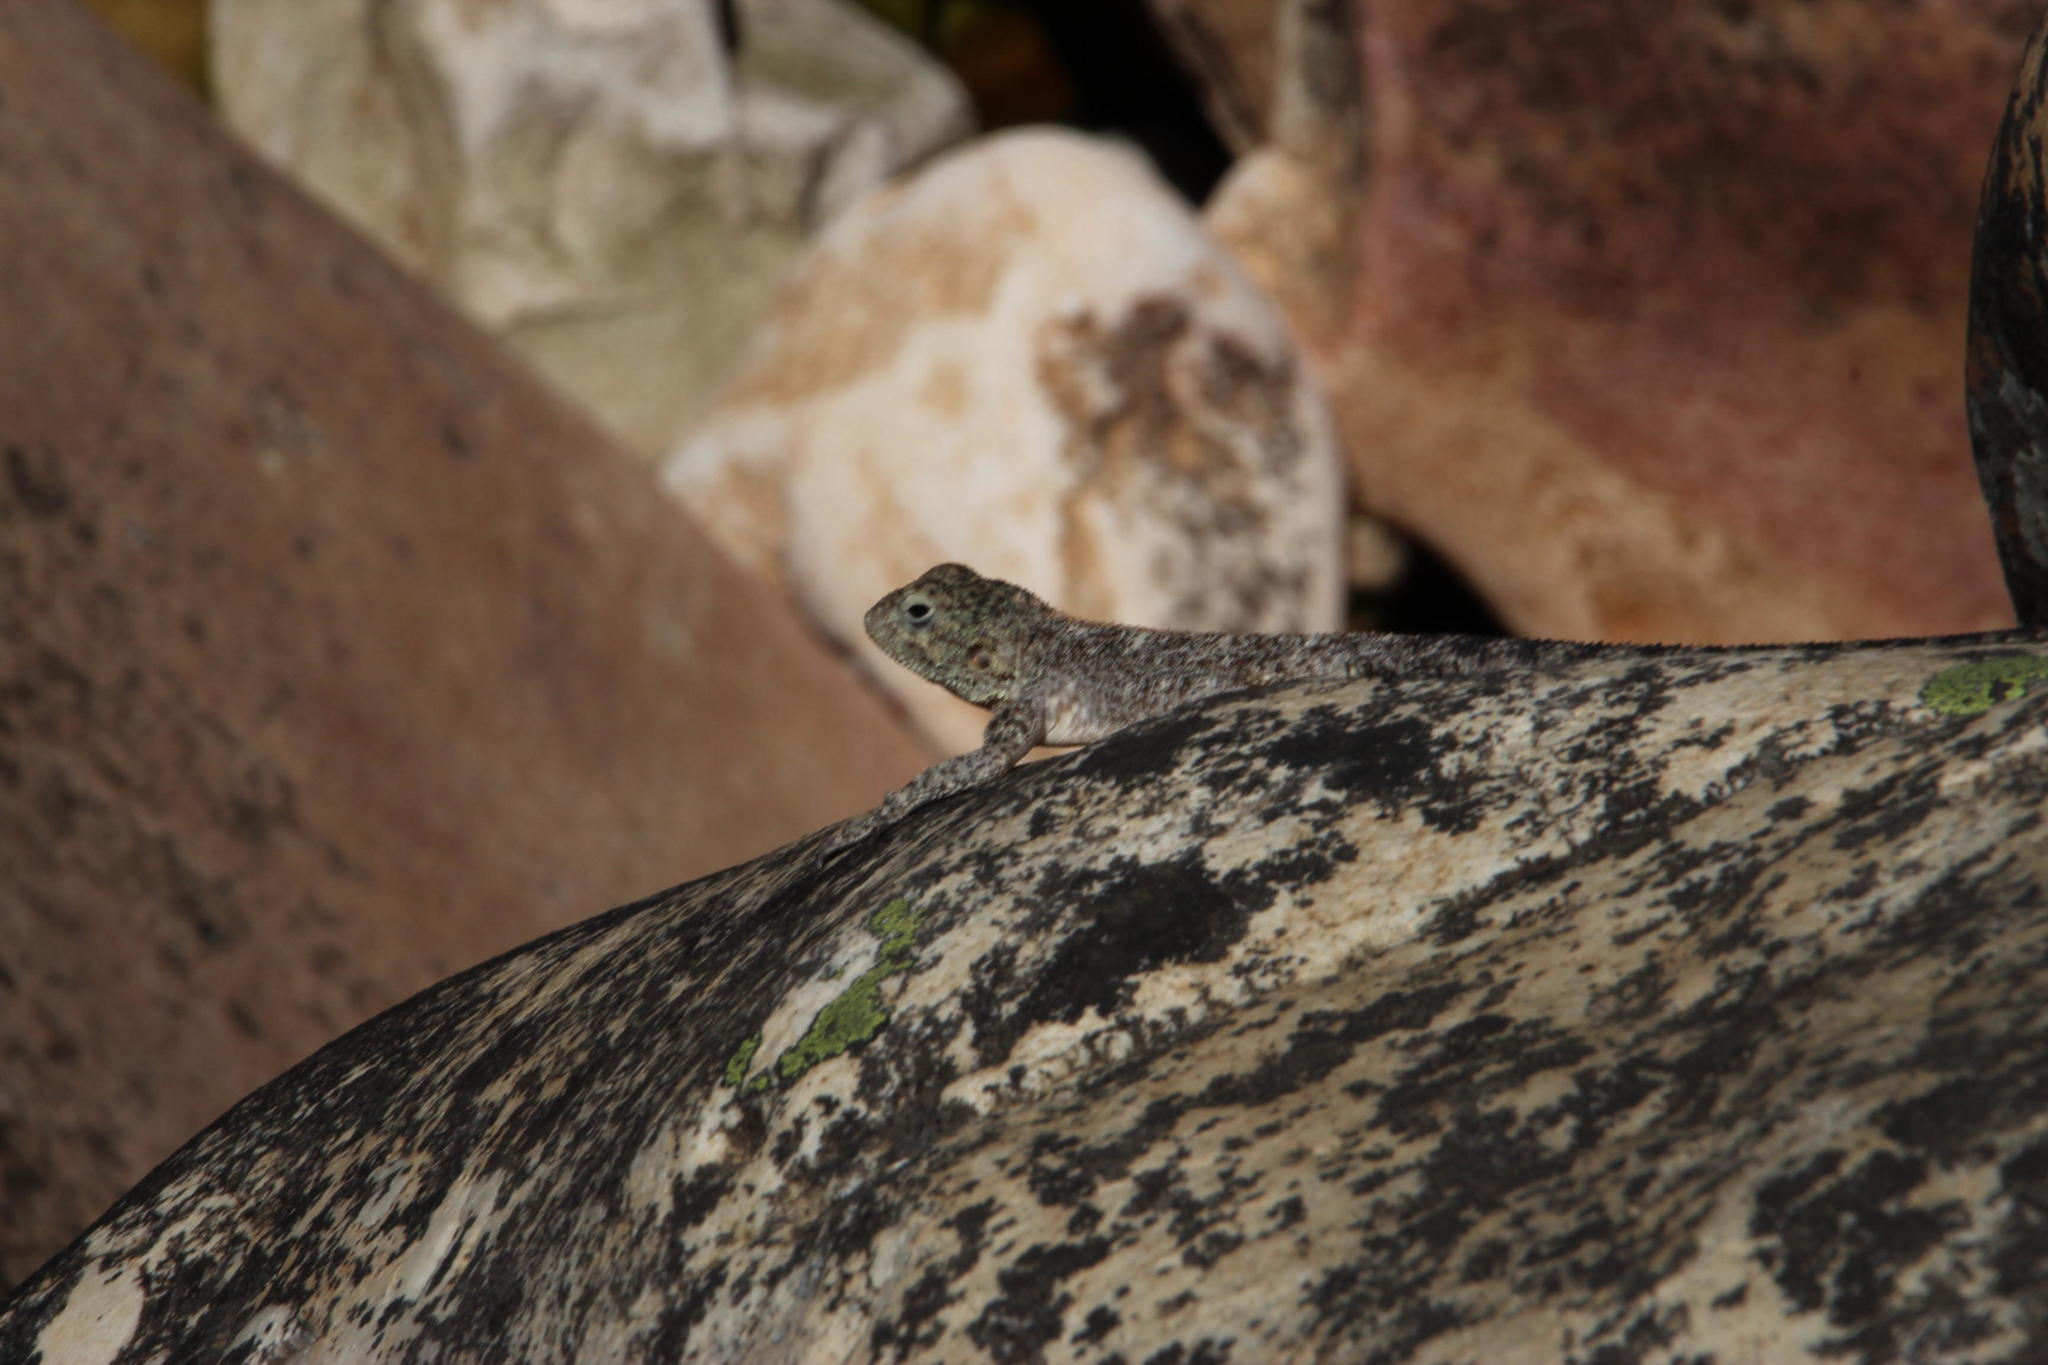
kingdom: Animalia
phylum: Chordata
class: Squamata
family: Agamidae
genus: Agama
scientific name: Agama atra
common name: Southern african rock agama
